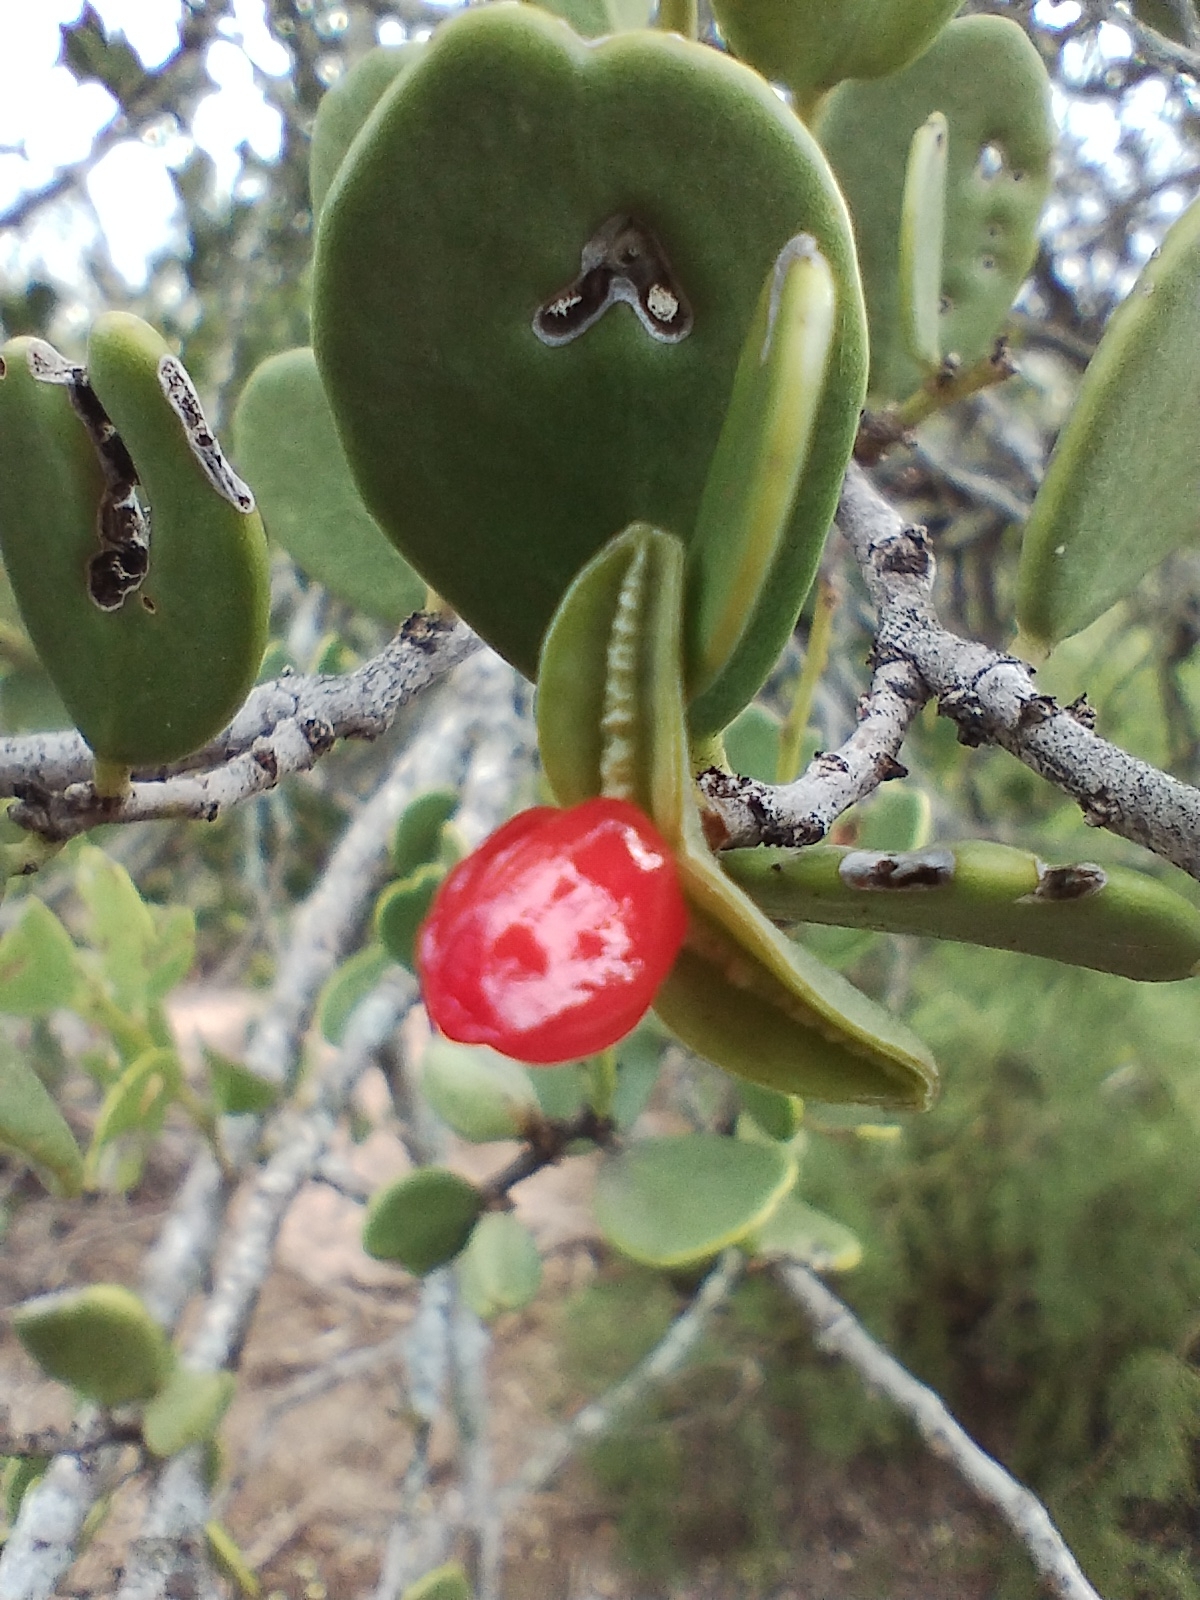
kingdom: Plantae
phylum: Tracheophyta
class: Magnoliopsida
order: Celastrales
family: Celastraceae
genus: Tricerma
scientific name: Tricerma vitis-idaeum
